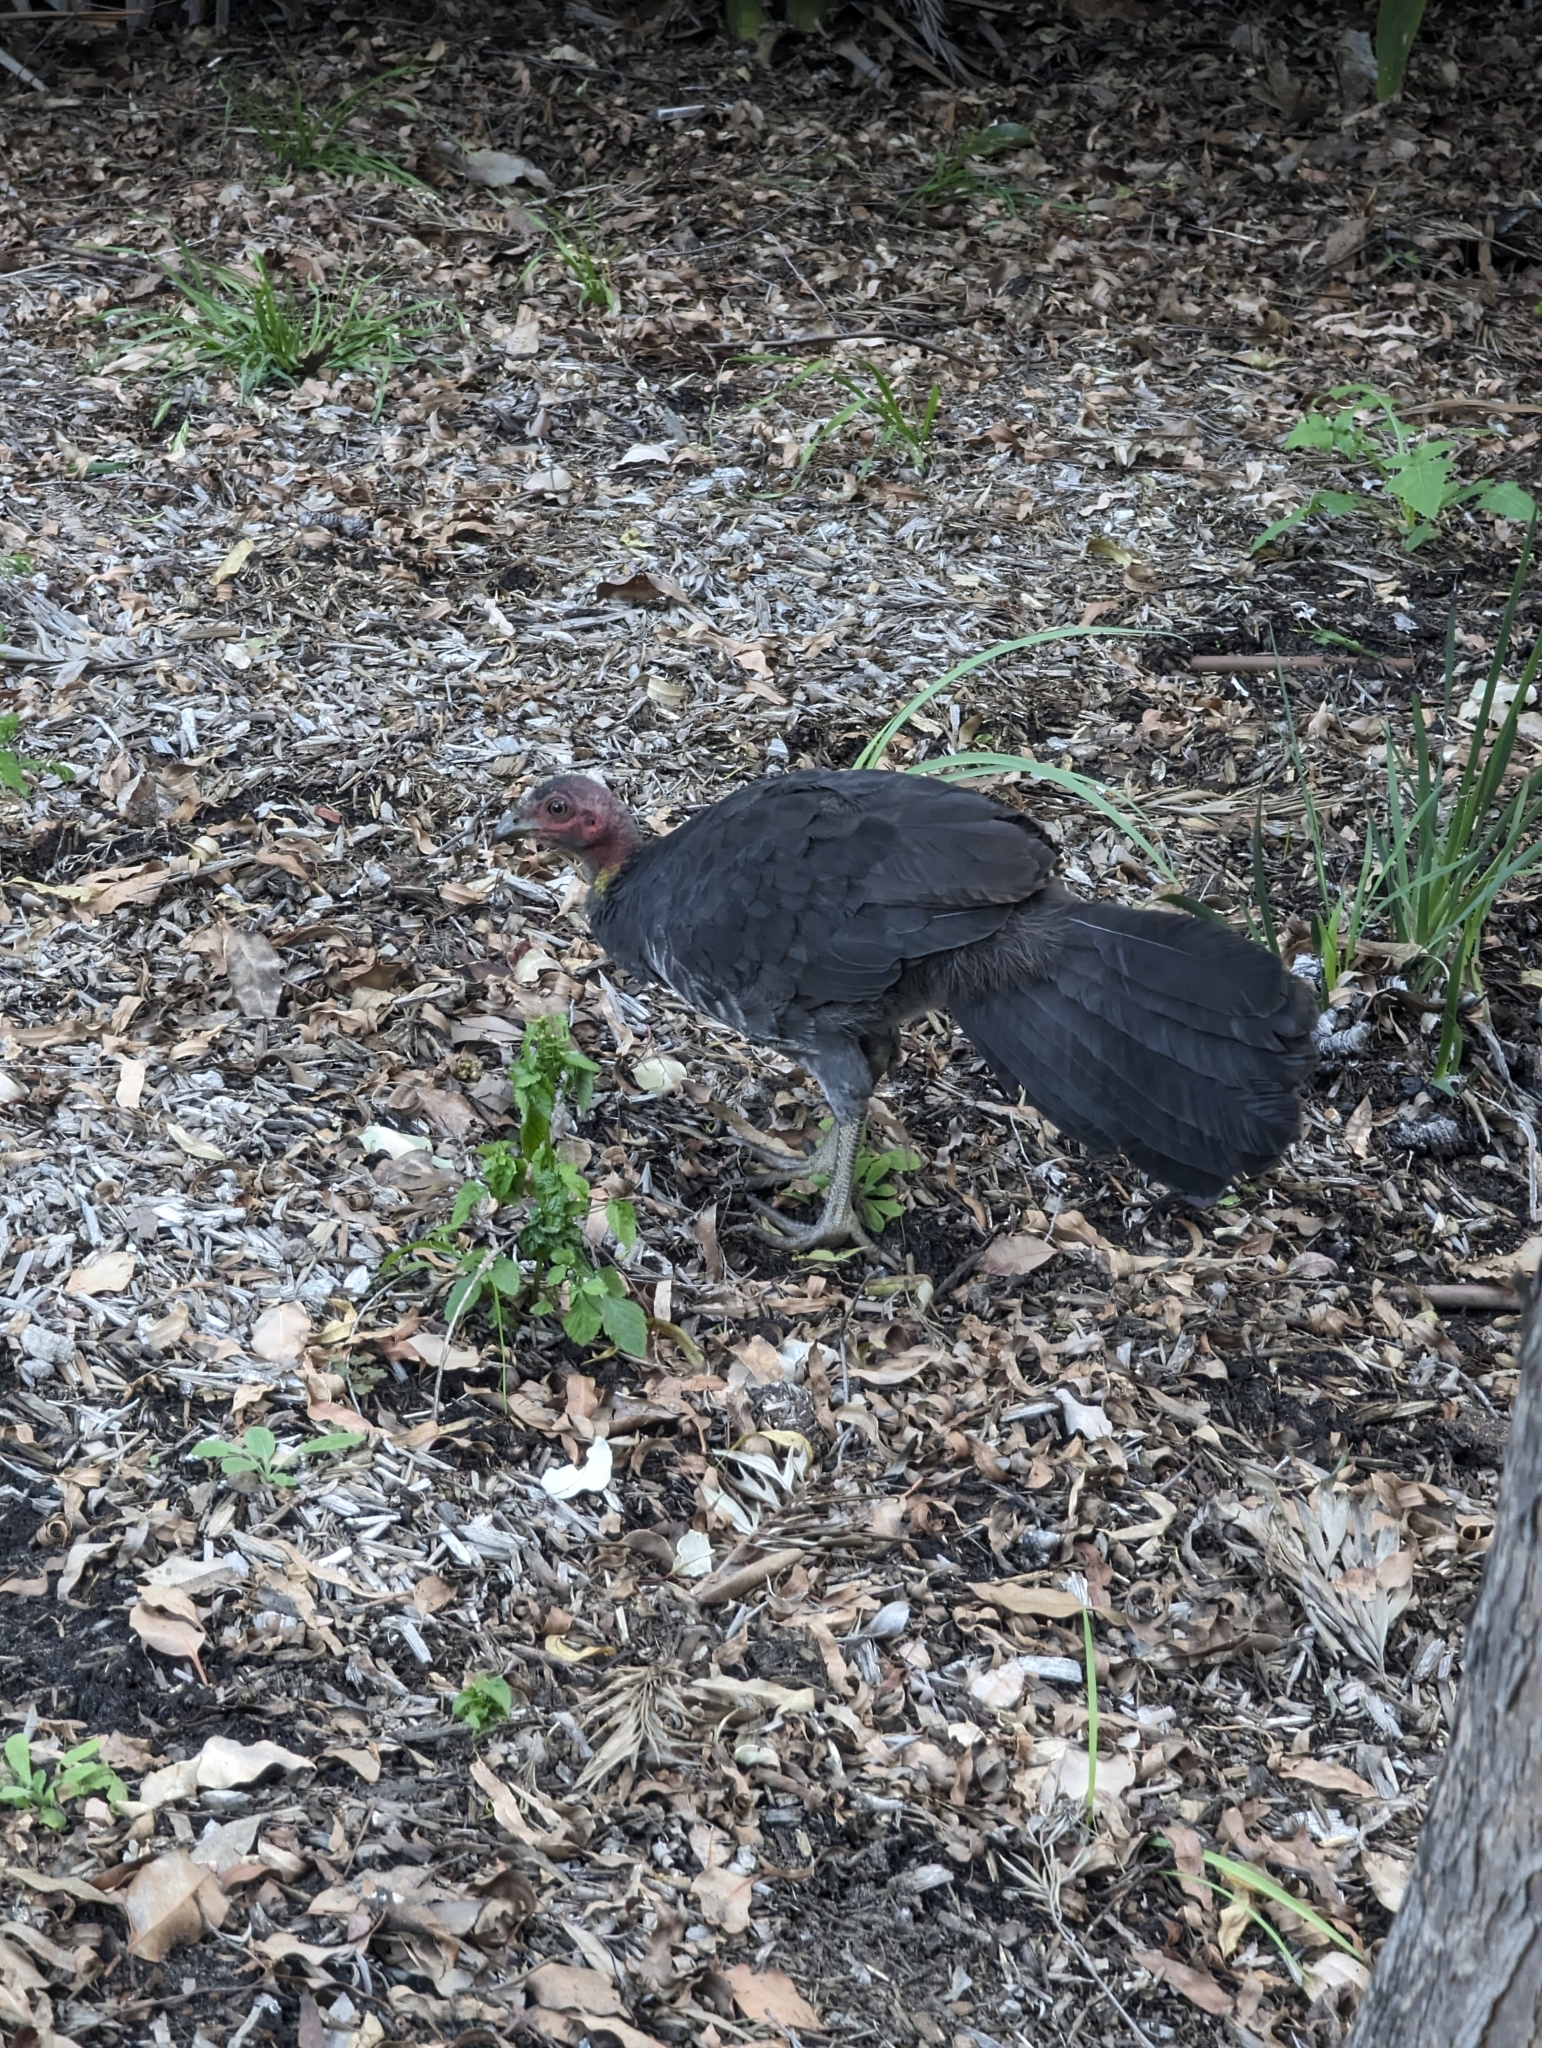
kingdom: Animalia
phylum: Chordata
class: Aves
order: Galliformes
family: Megapodiidae
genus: Alectura
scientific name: Alectura lathami
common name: Australian brushturkey
